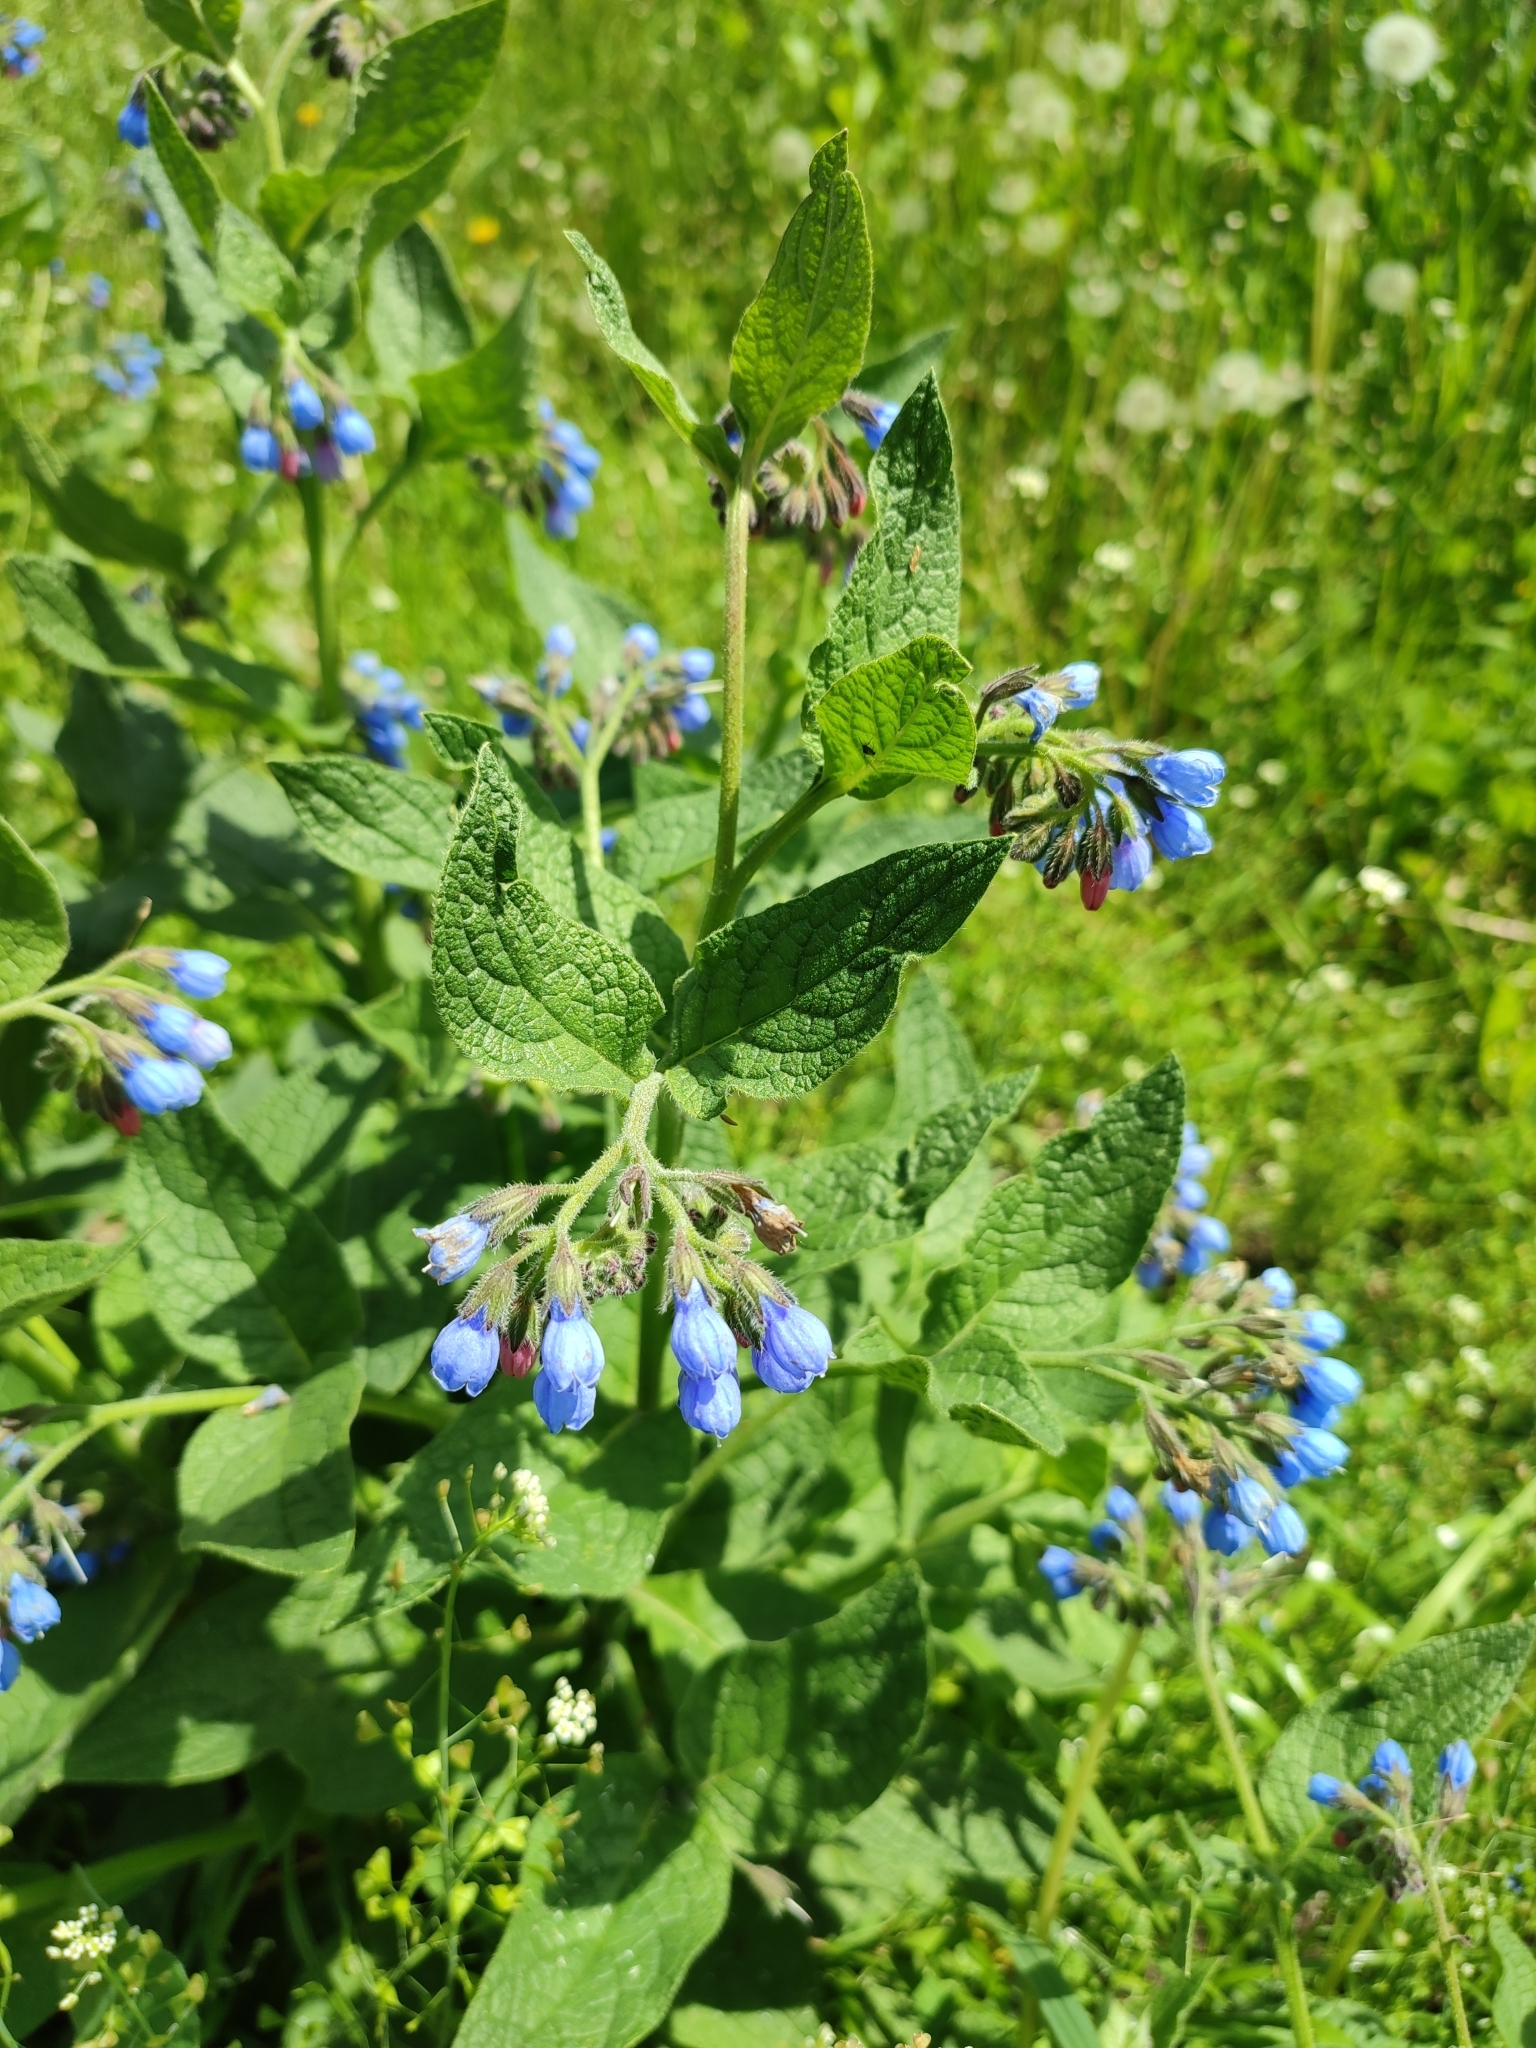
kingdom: Plantae
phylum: Tracheophyta
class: Magnoliopsida
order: Boraginales
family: Boraginaceae
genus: Symphytum
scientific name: Symphytum caucasicum
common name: Caucasian comfrey
